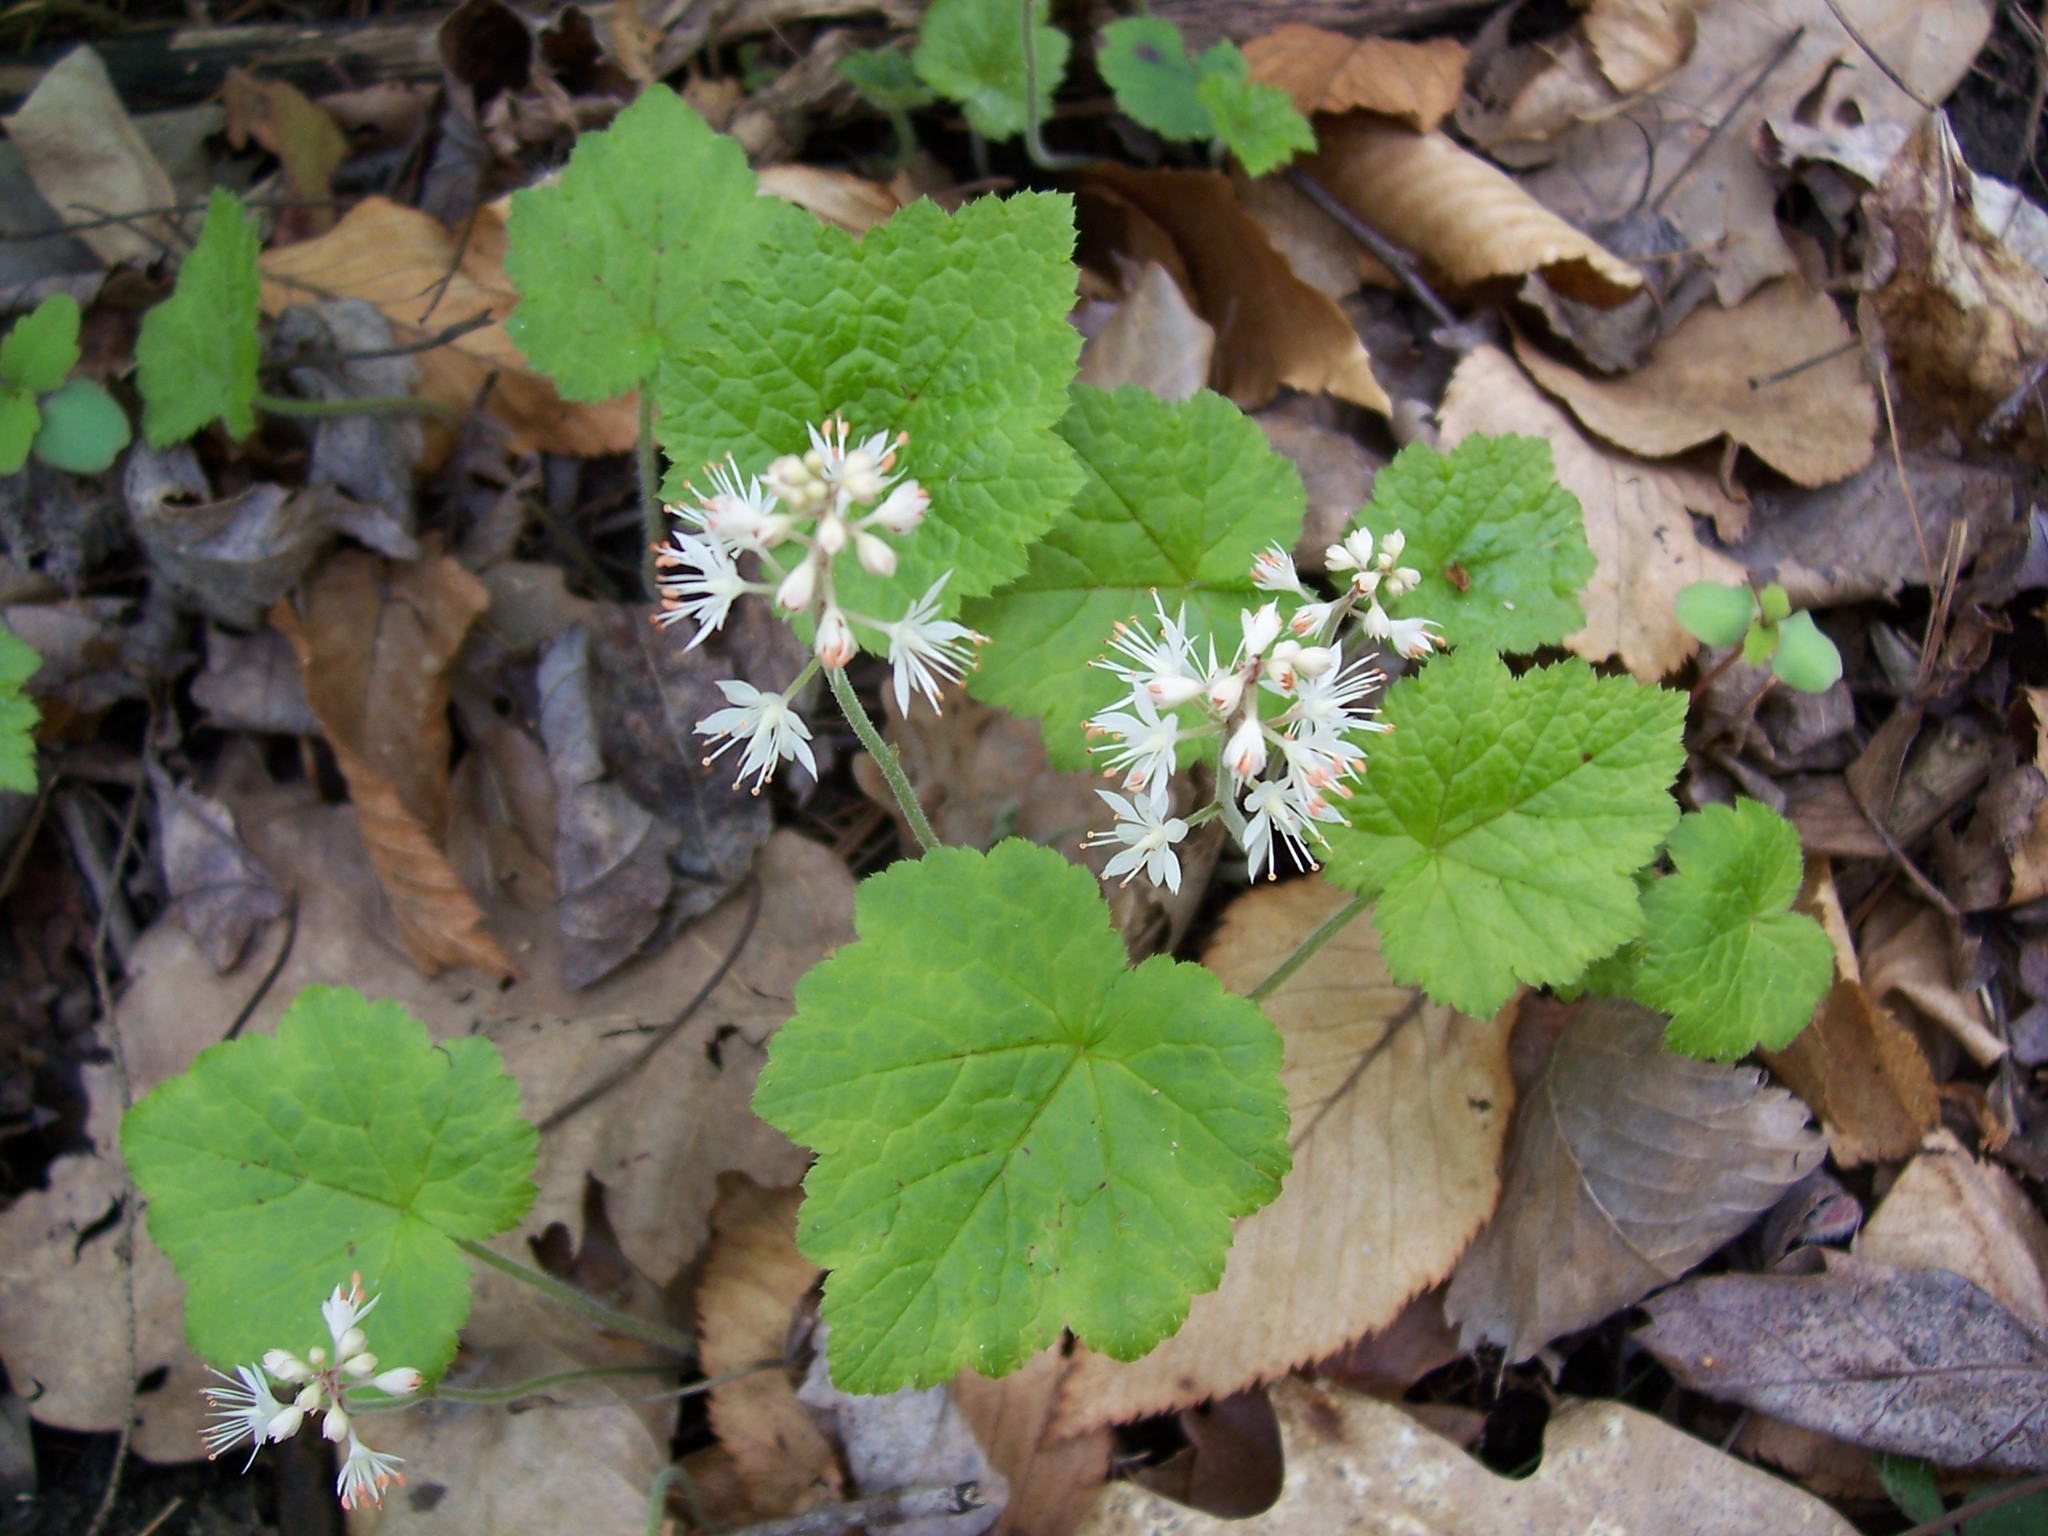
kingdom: Plantae
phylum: Tracheophyta
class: Magnoliopsida
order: Saxifragales
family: Saxifragaceae
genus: Tiarella
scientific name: Tiarella stolonifera
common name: Stoloniferous foamflower
